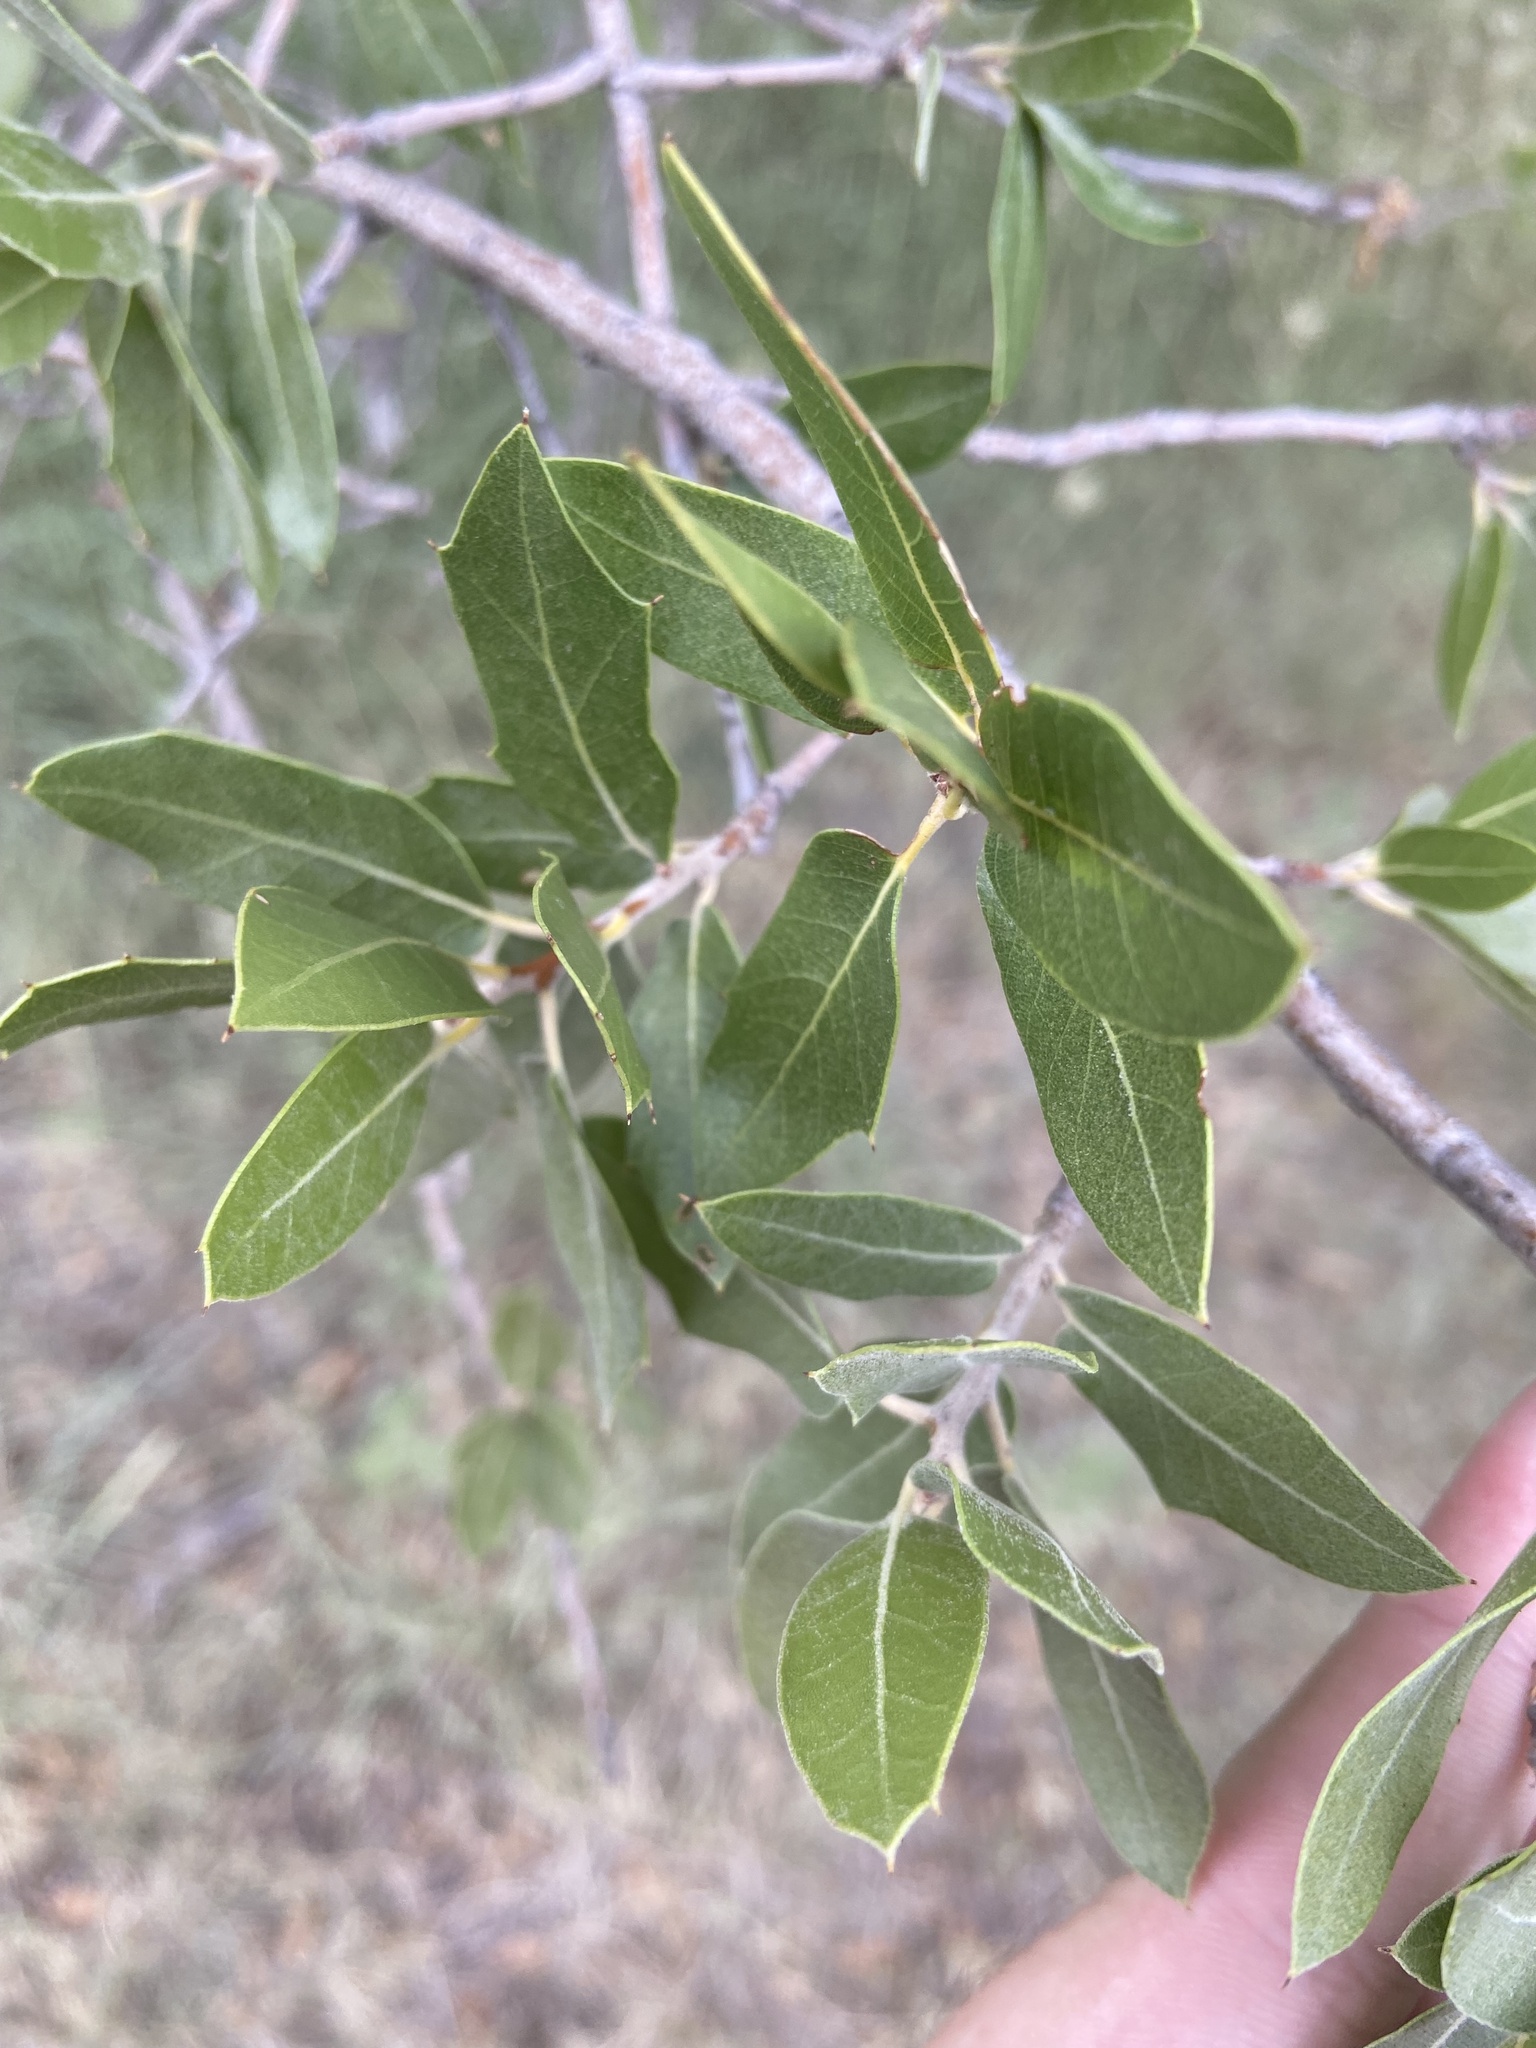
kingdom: Plantae
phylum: Tracheophyta
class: Magnoliopsida
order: Fagales
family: Fagaceae
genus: Quercus
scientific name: Quercus emoryi
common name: Emory oak
